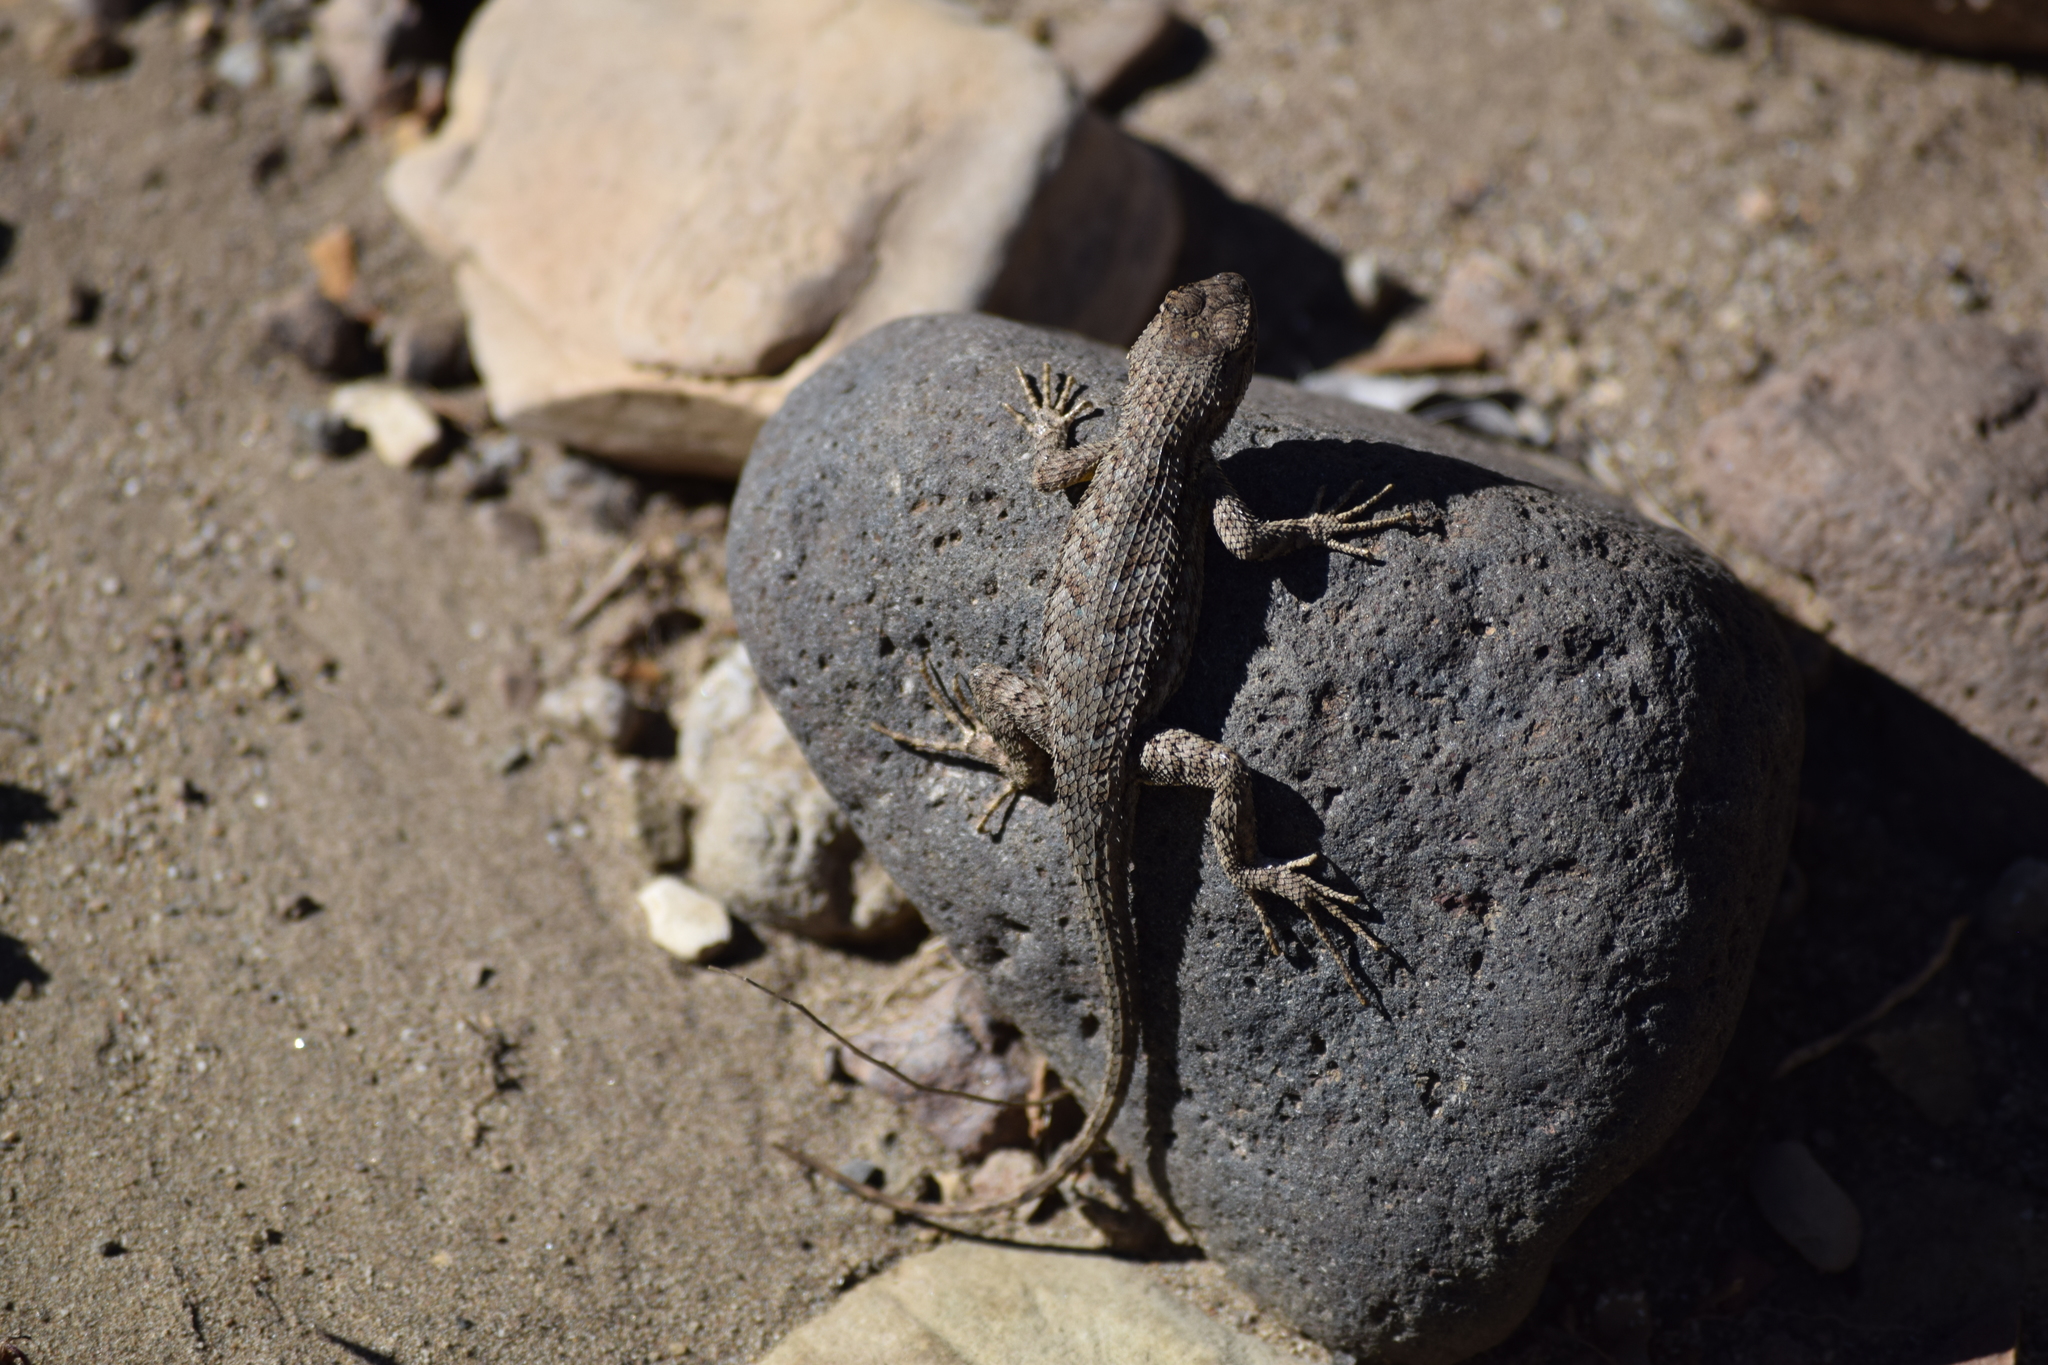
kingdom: Animalia
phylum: Chordata
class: Squamata
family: Phrynosomatidae
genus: Sceloporus
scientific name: Sceloporus occidentalis
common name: Western fence lizard
